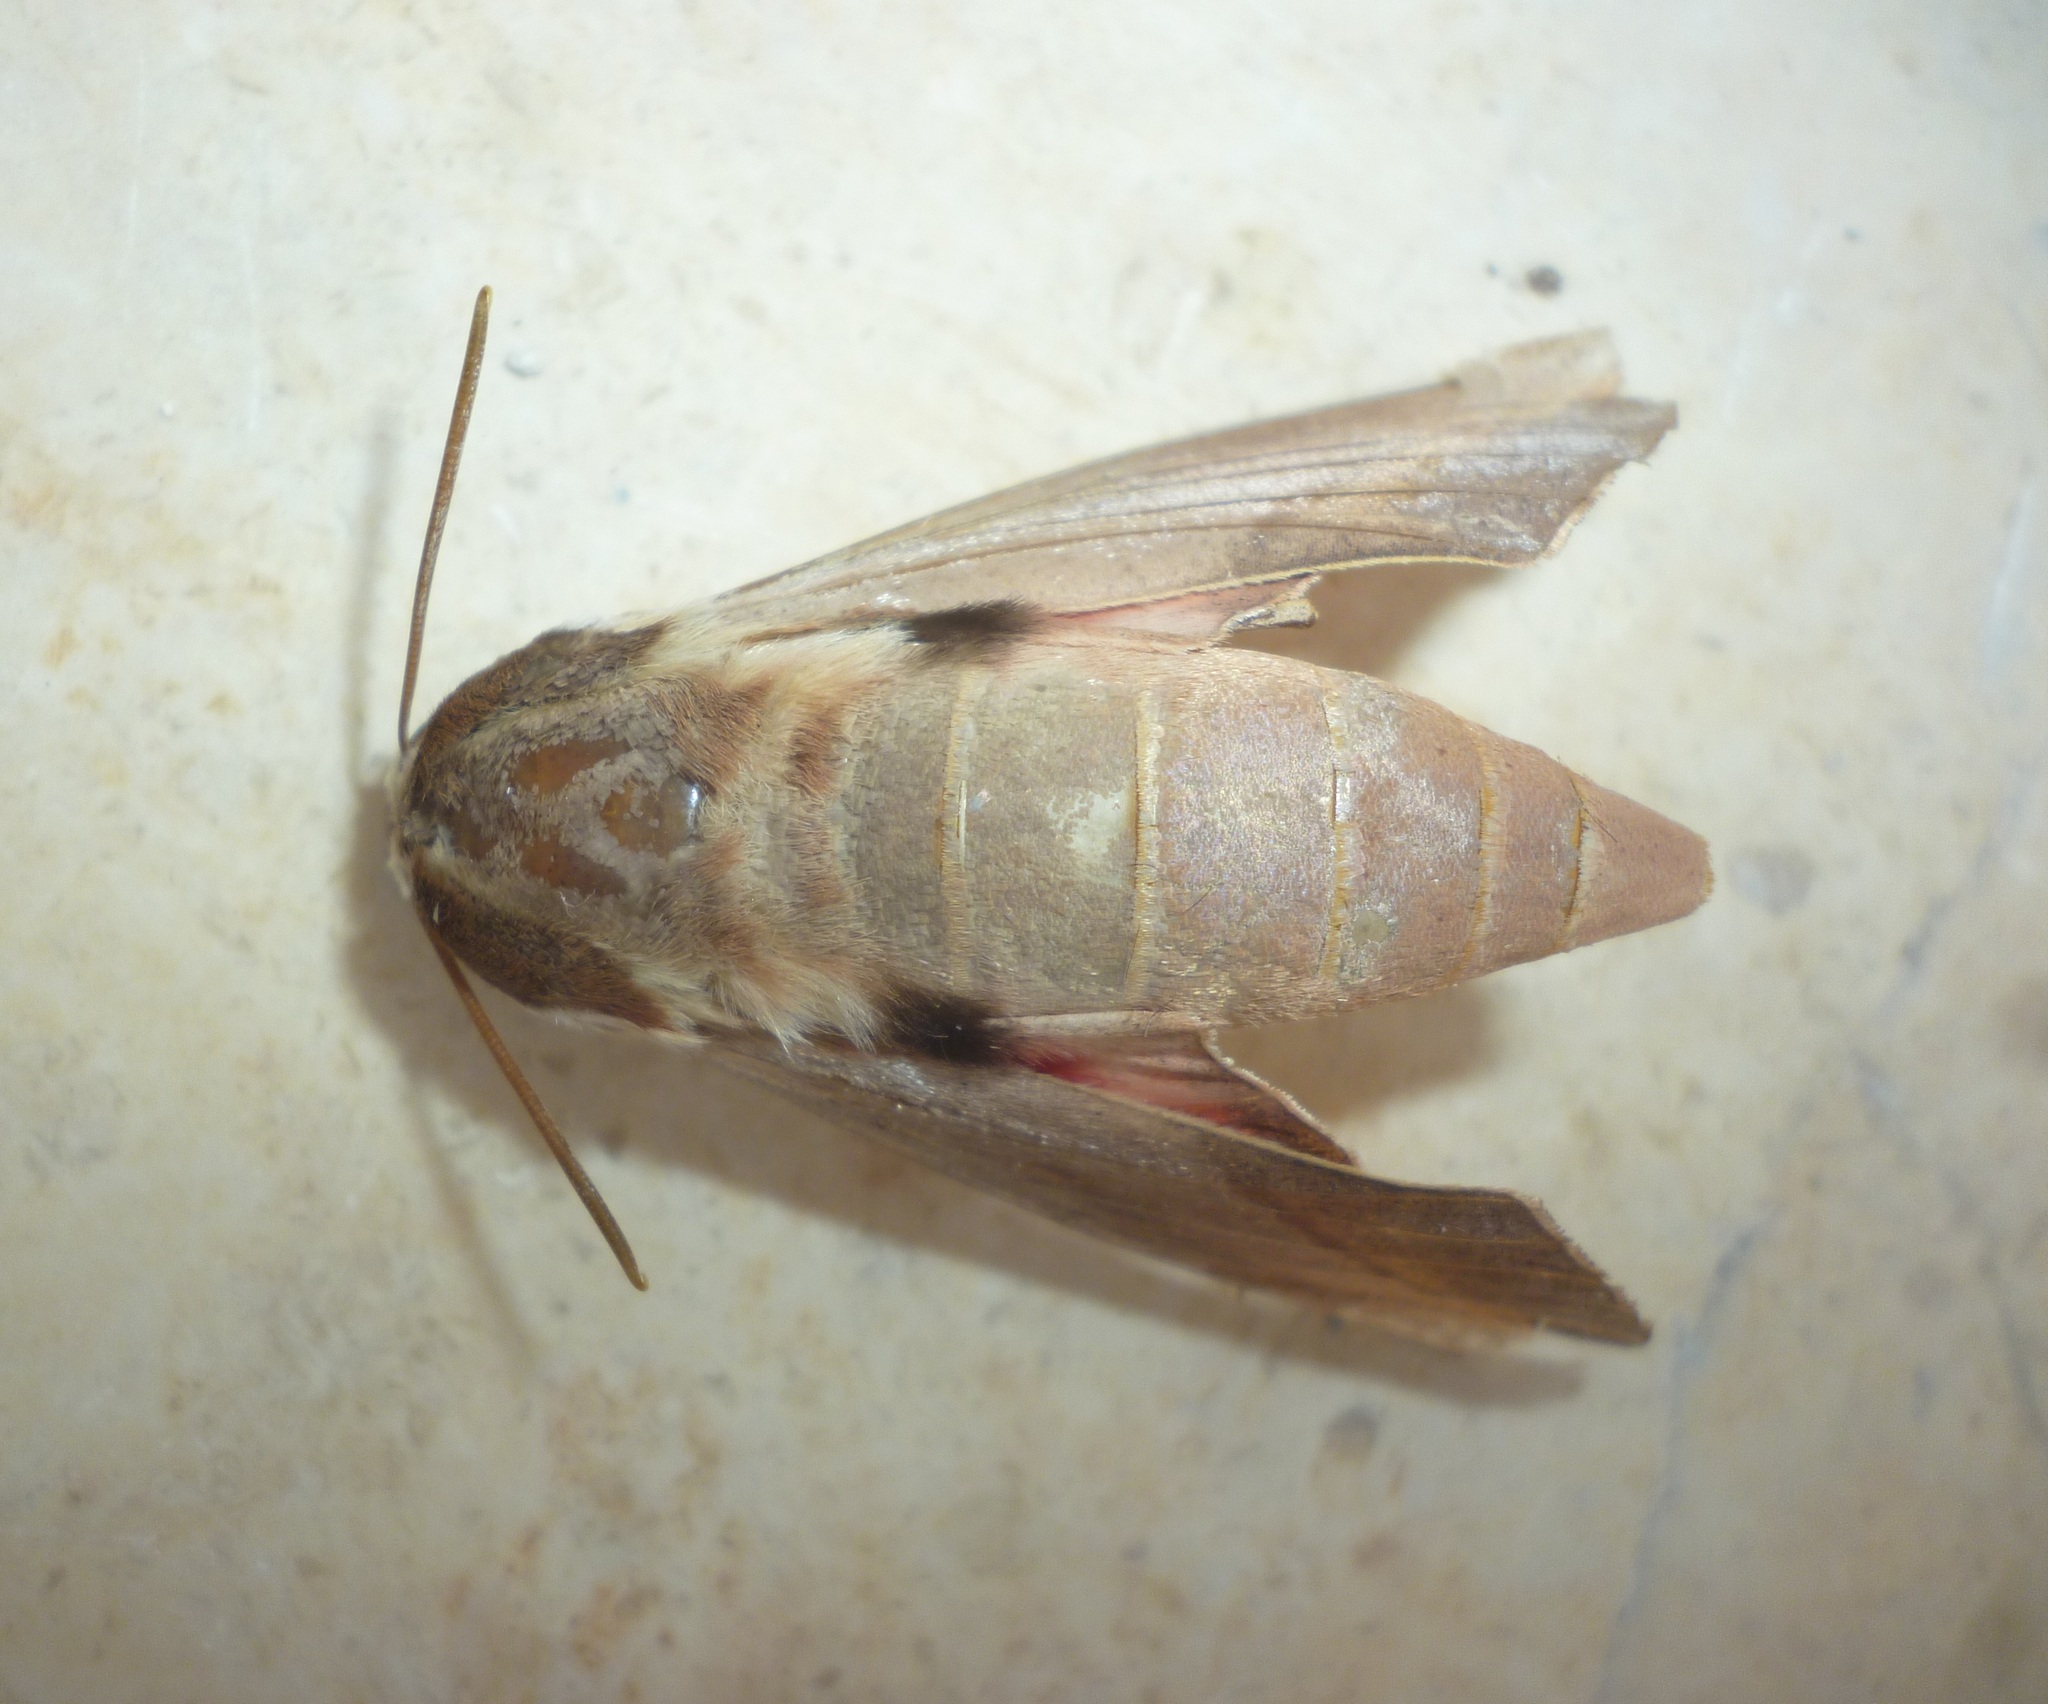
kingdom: Animalia
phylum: Arthropoda
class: Insecta
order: Lepidoptera
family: Sphingidae
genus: Theretra
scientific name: Theretra alecto
